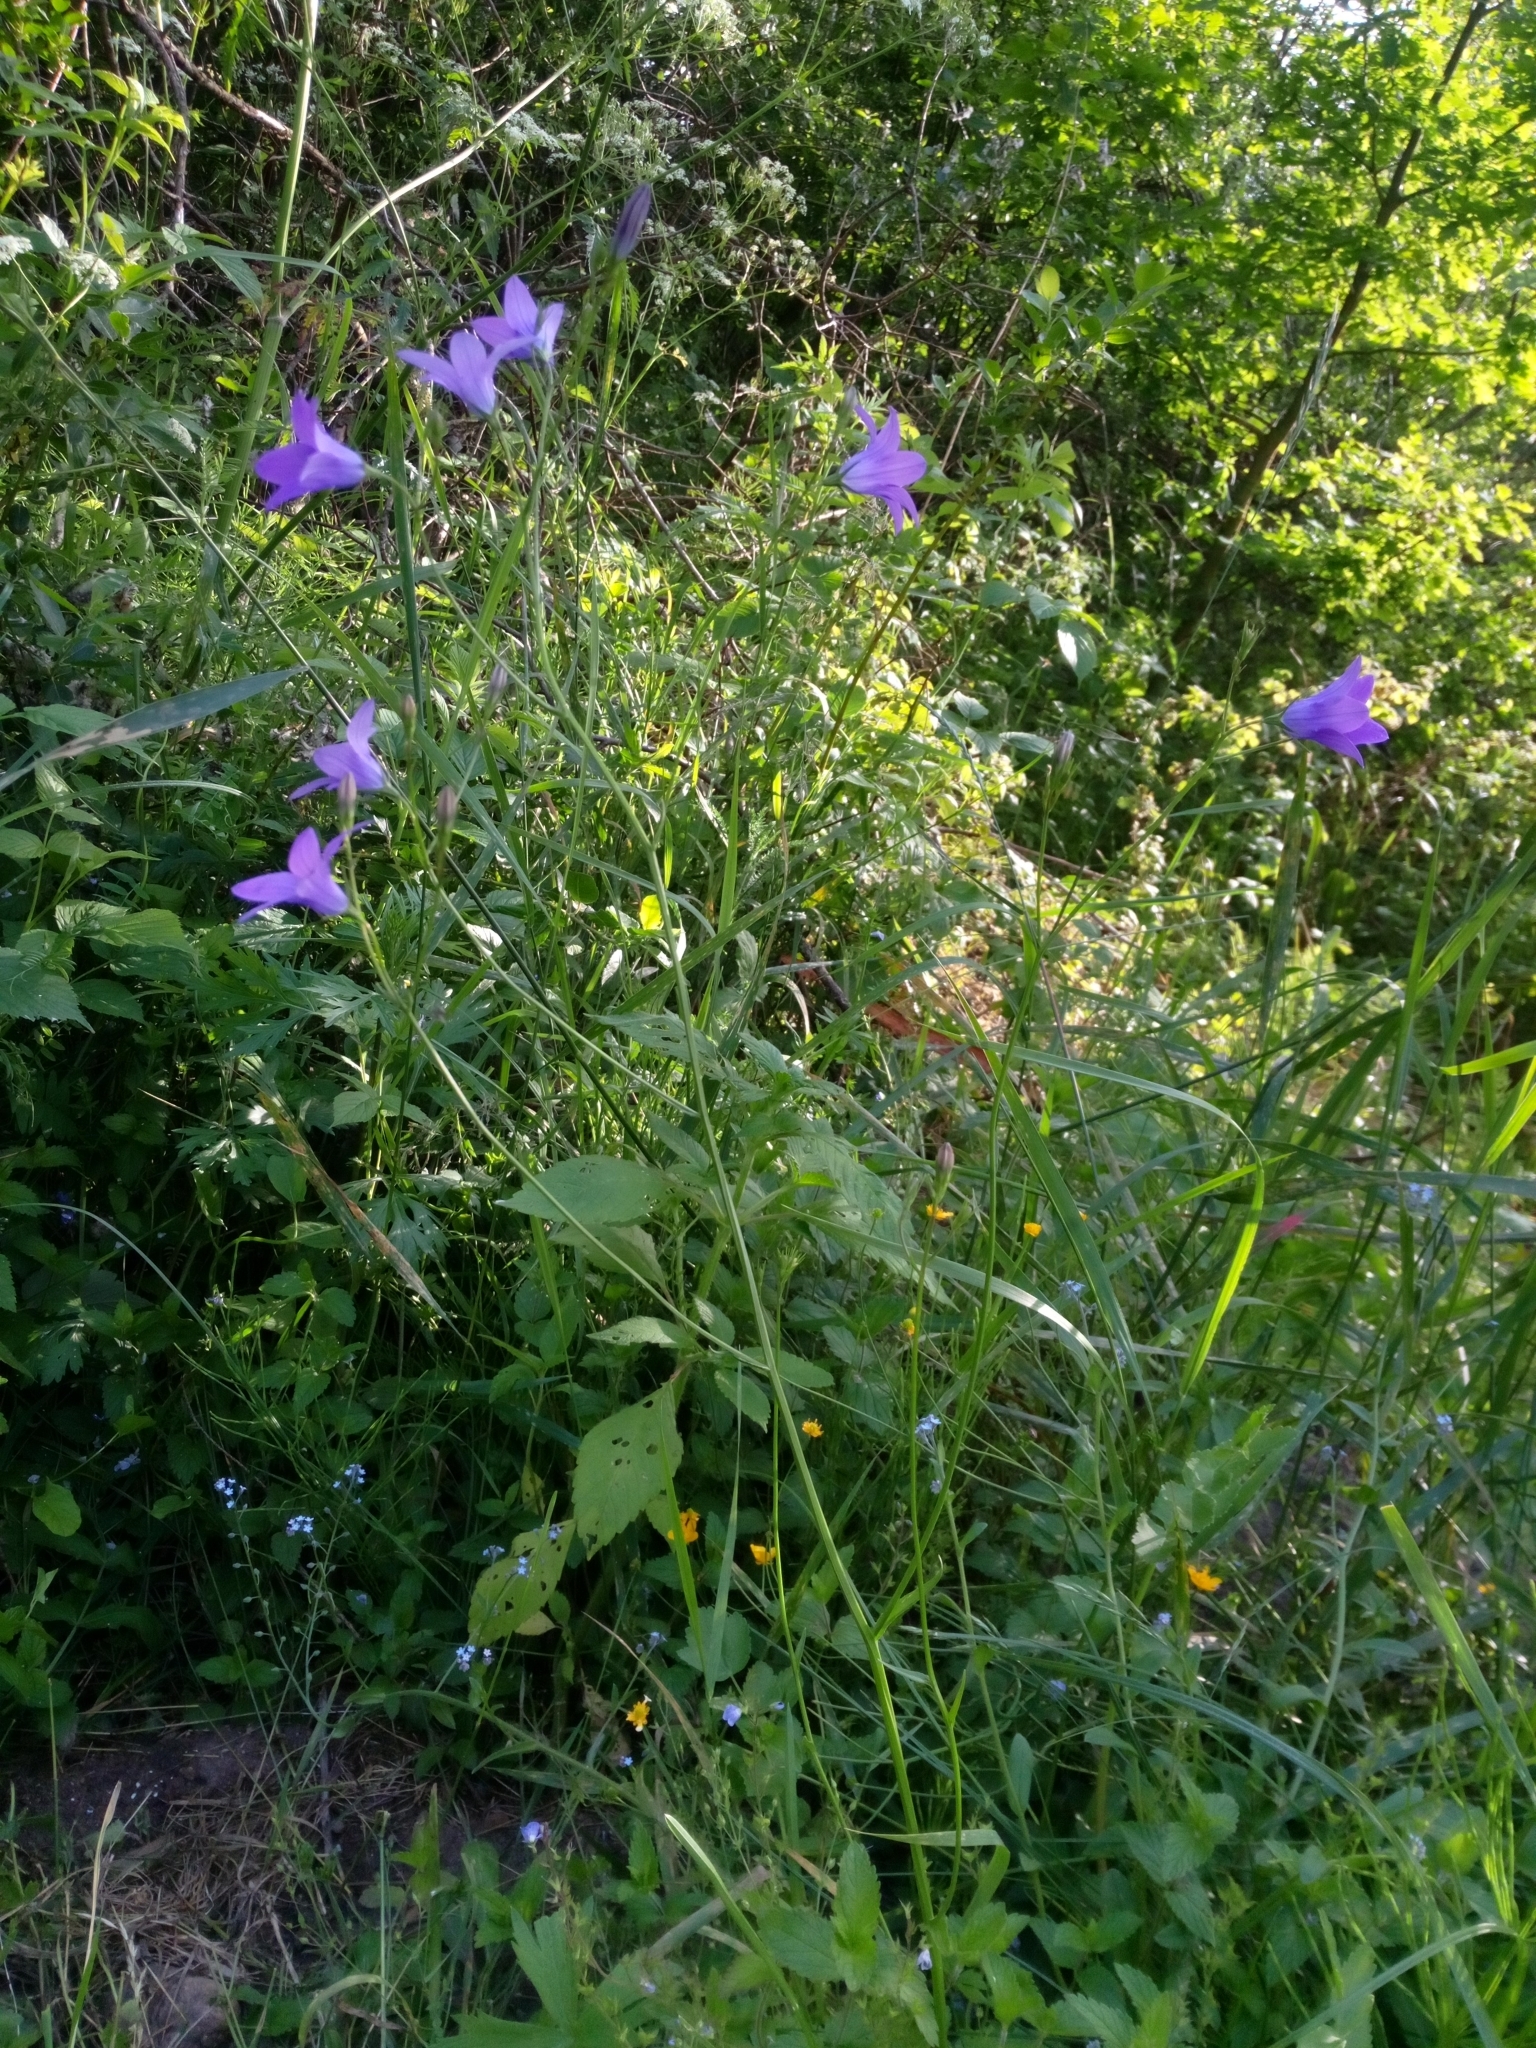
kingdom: Plantae
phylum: Tracheophyta
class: Magnoliopsida
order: Asterales
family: Campanulaceae
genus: Campanula
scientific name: Campanula patula
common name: Spreading bellflower
